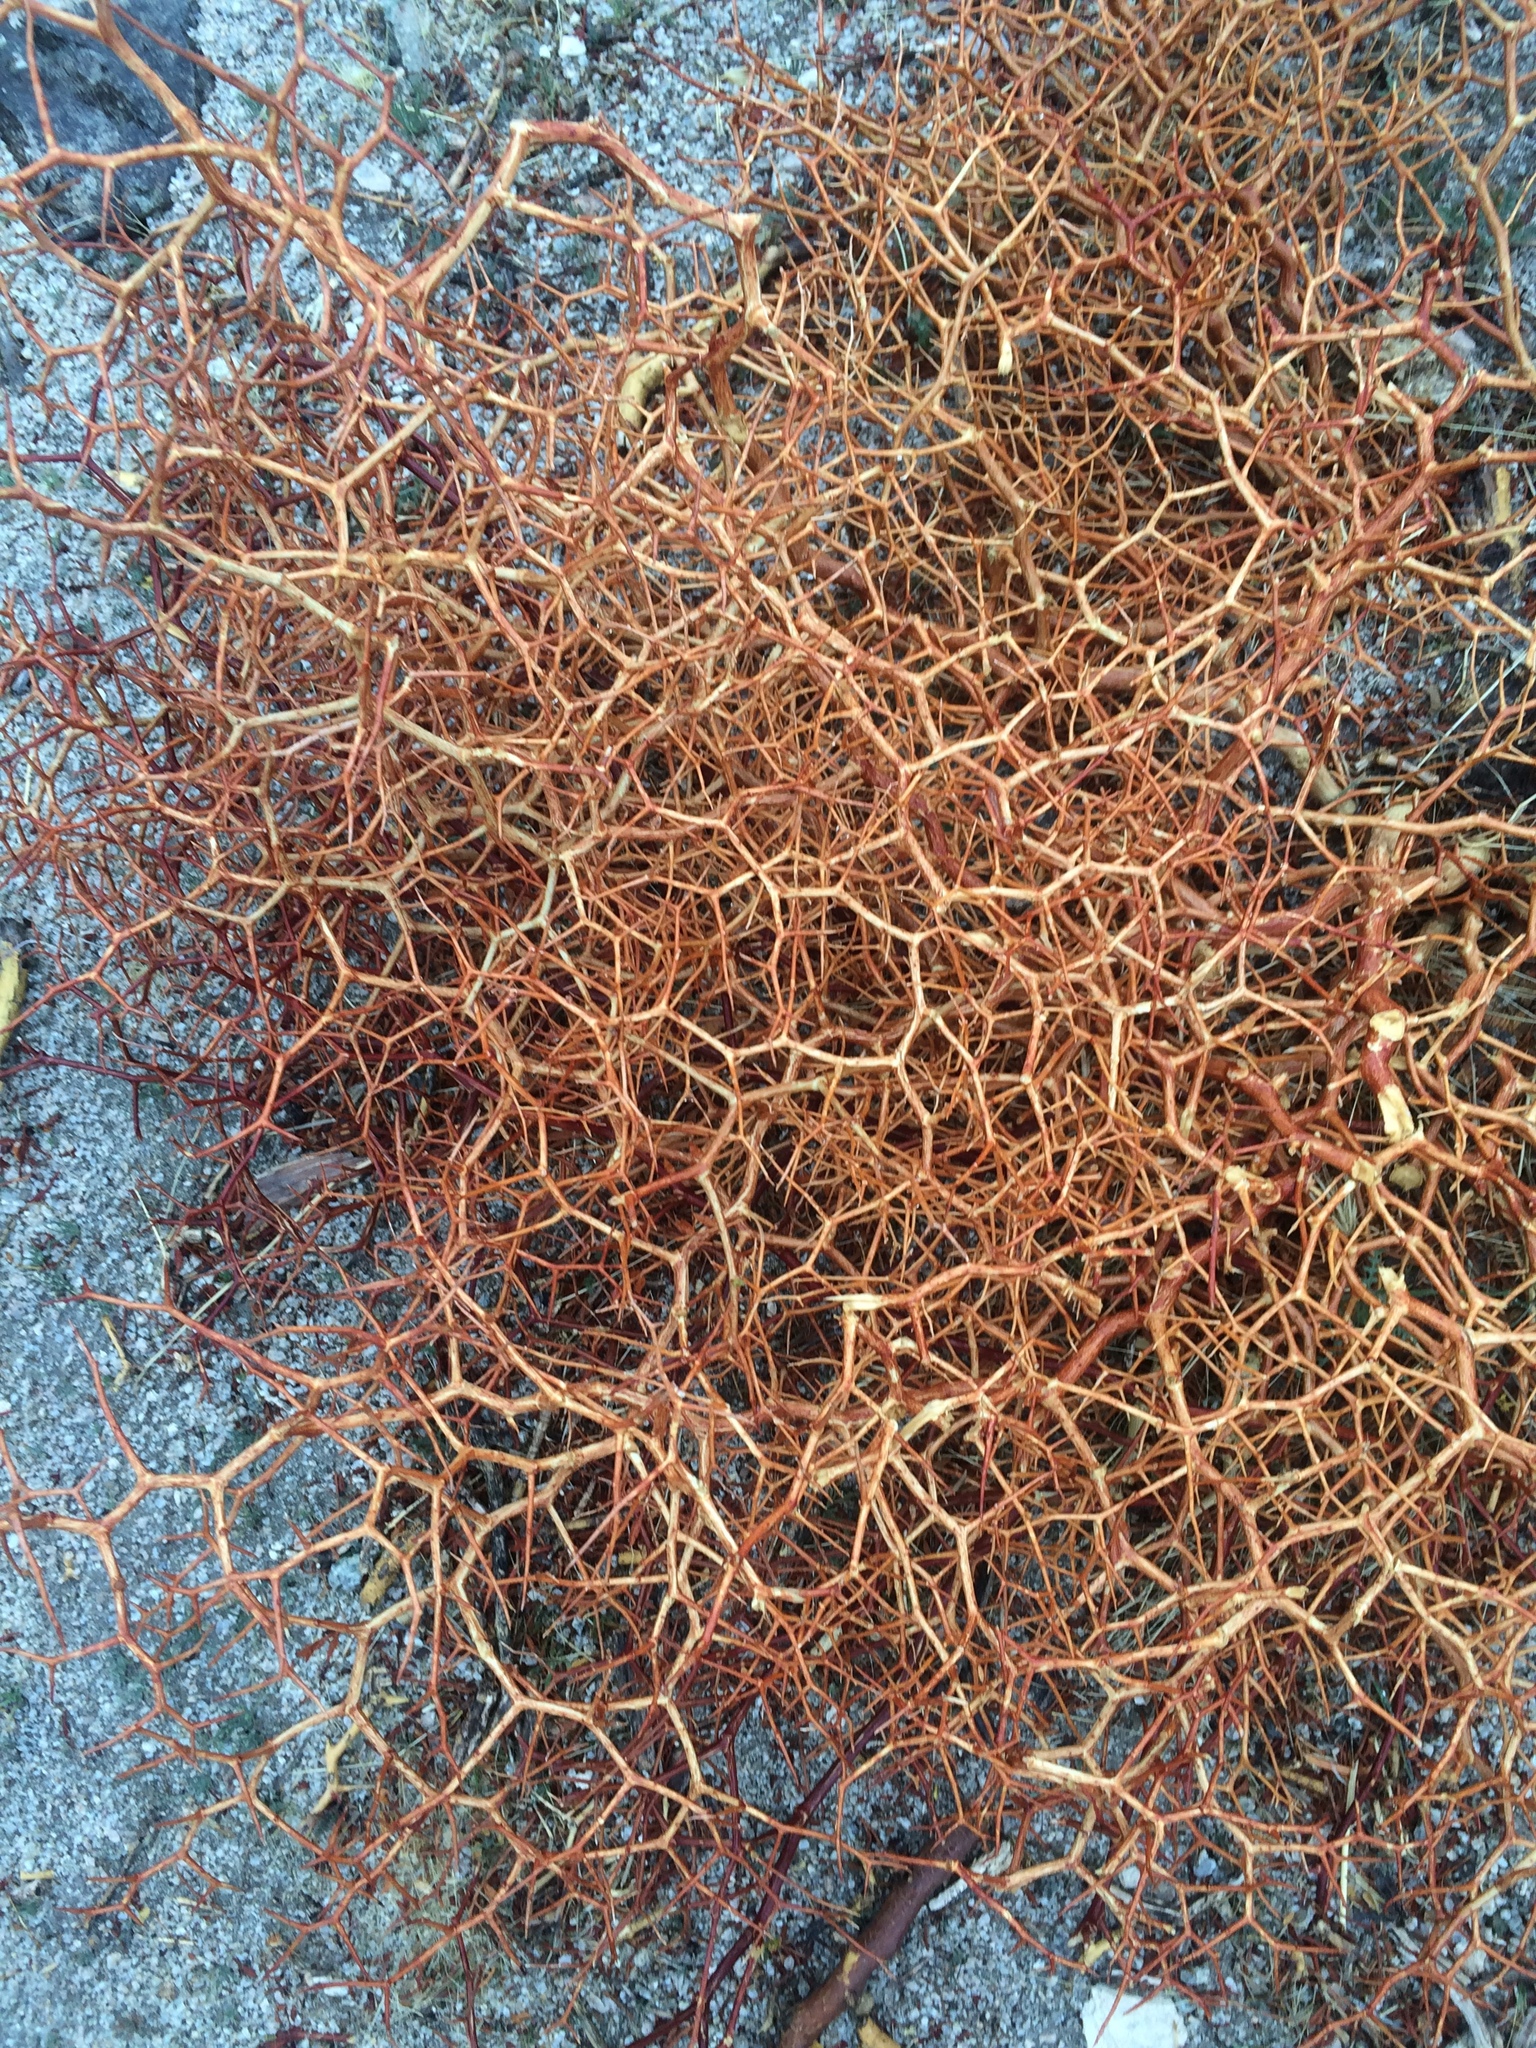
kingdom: Plantae
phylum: Tracheophyta
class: Magnoliopsida
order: Caryophyllales
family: Polygonaceae
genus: Eriogonum
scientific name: Eriogonum heermannii
